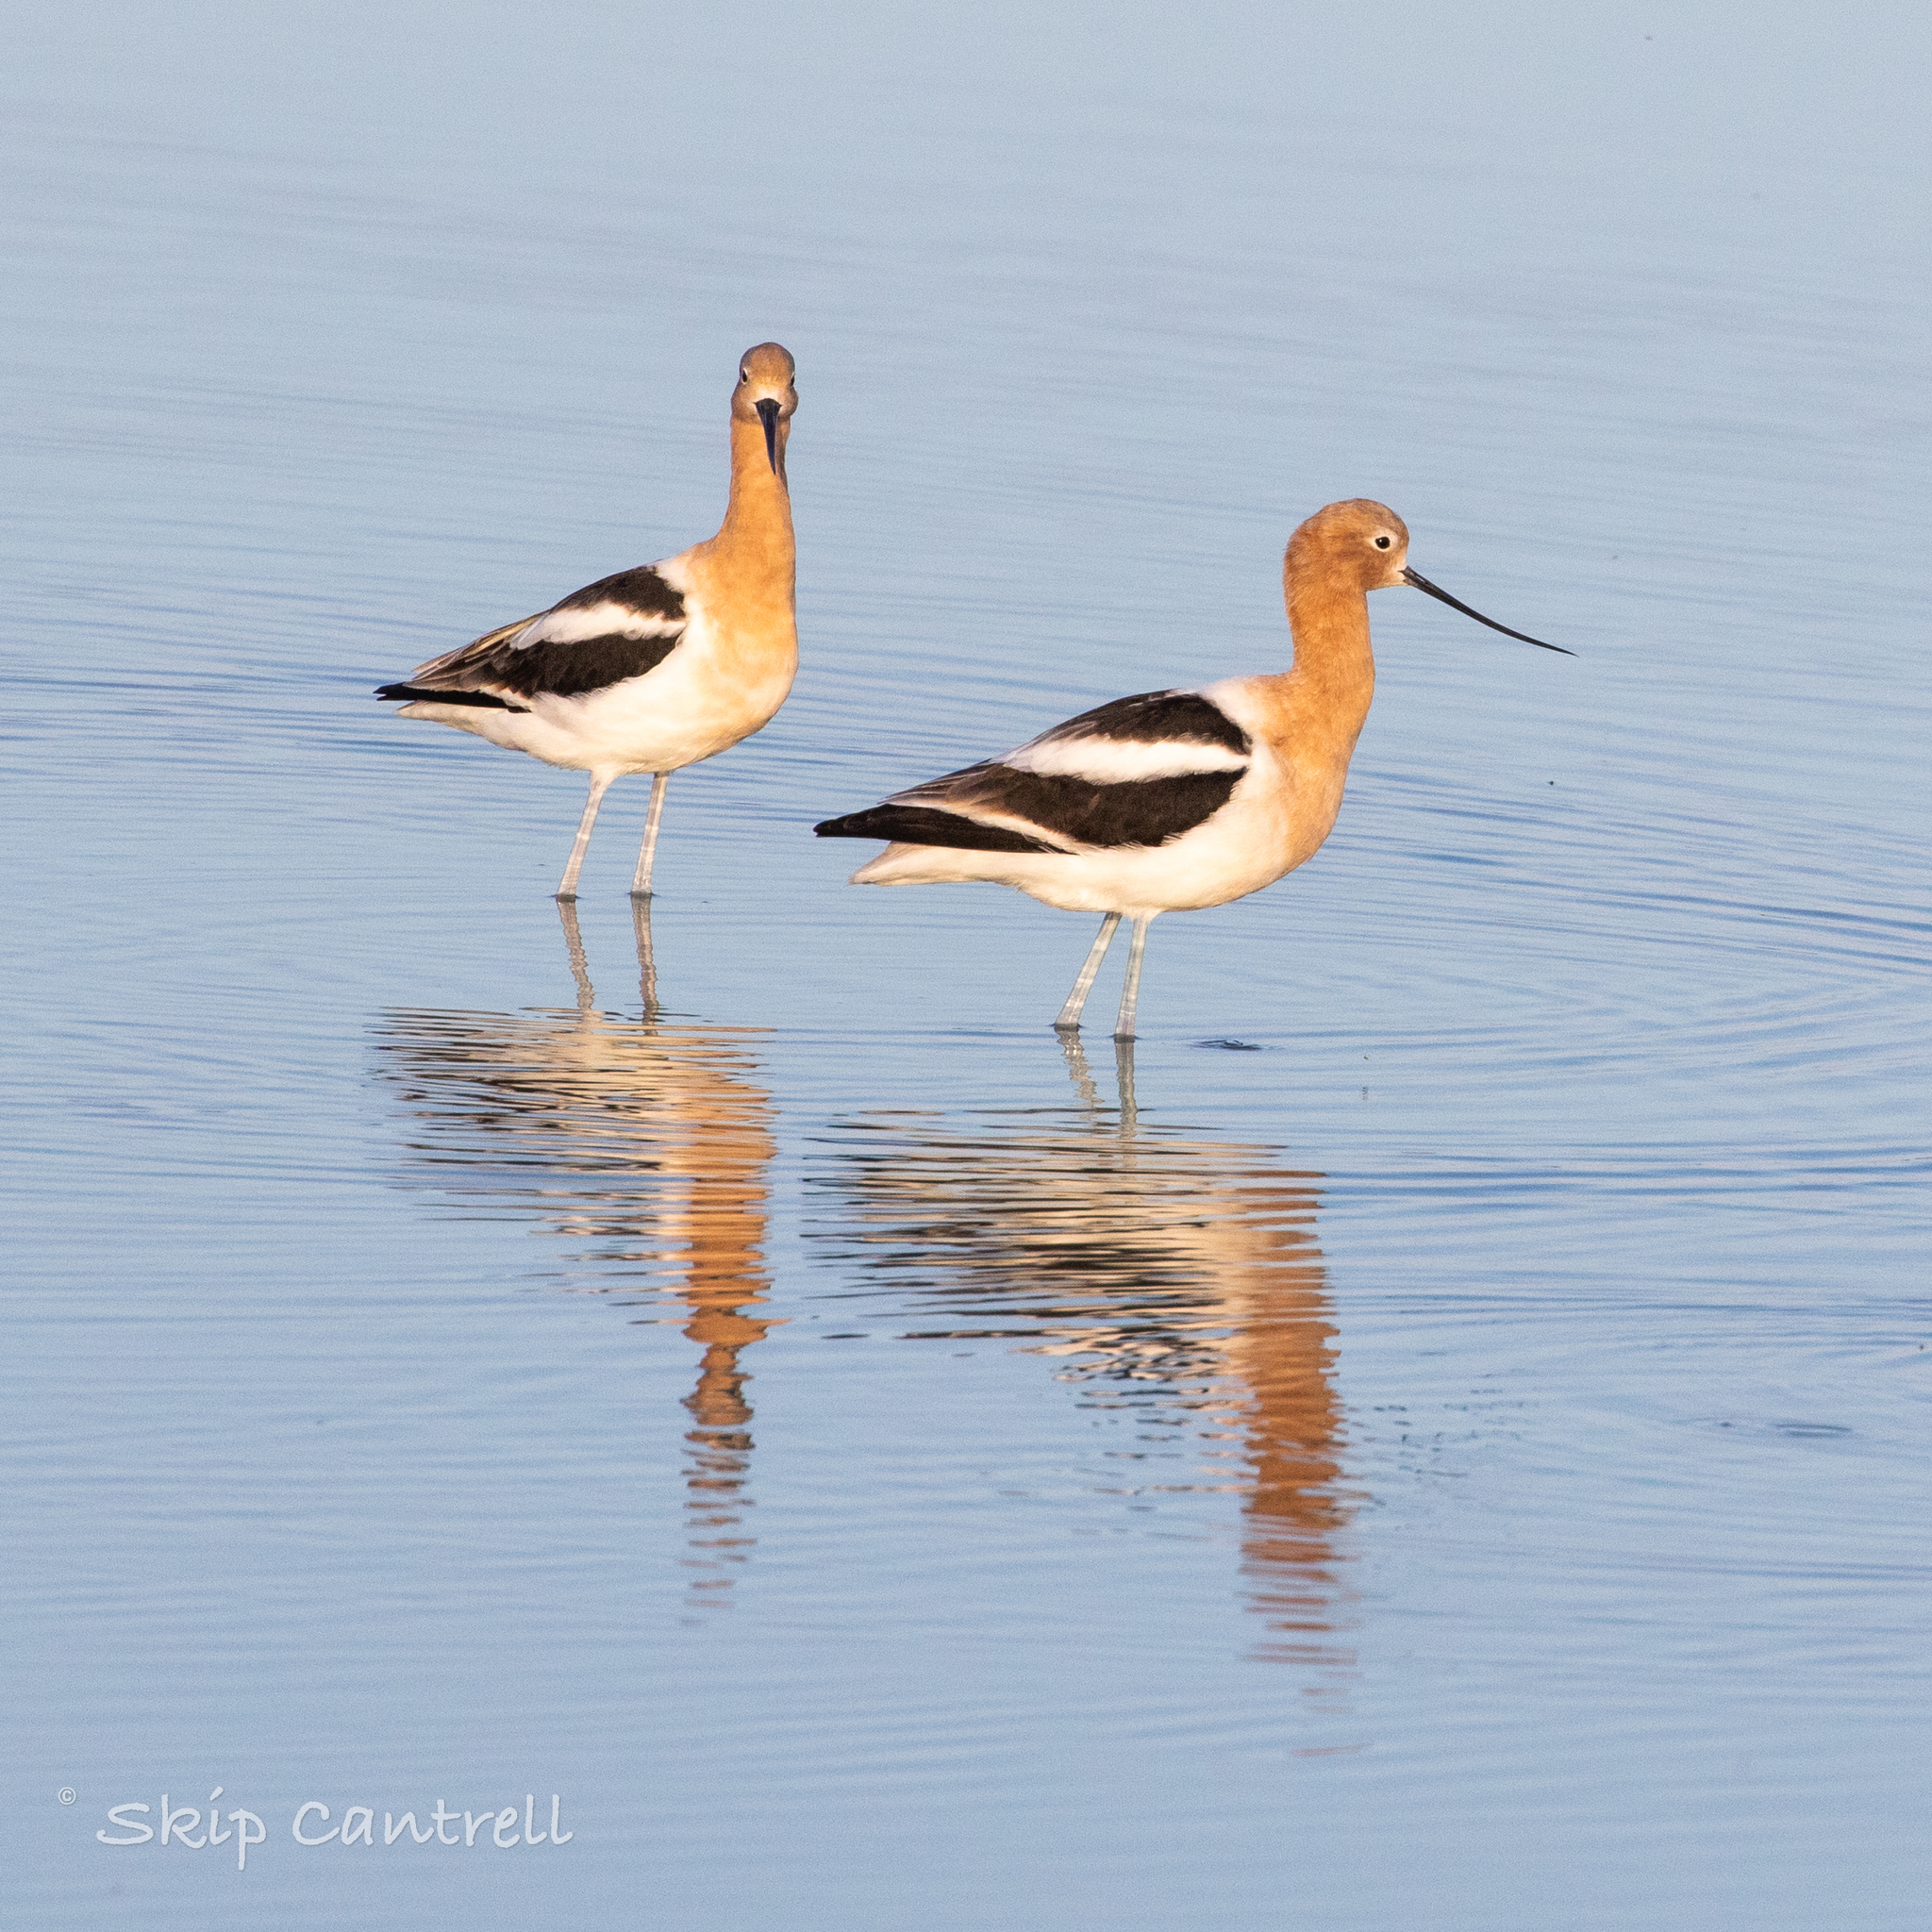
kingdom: Animalia
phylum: Chordata
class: Aves
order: Charadriiformes
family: Recurvirostridae
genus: Recurvirostra
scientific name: Recurvirostra americana
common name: American avocet
